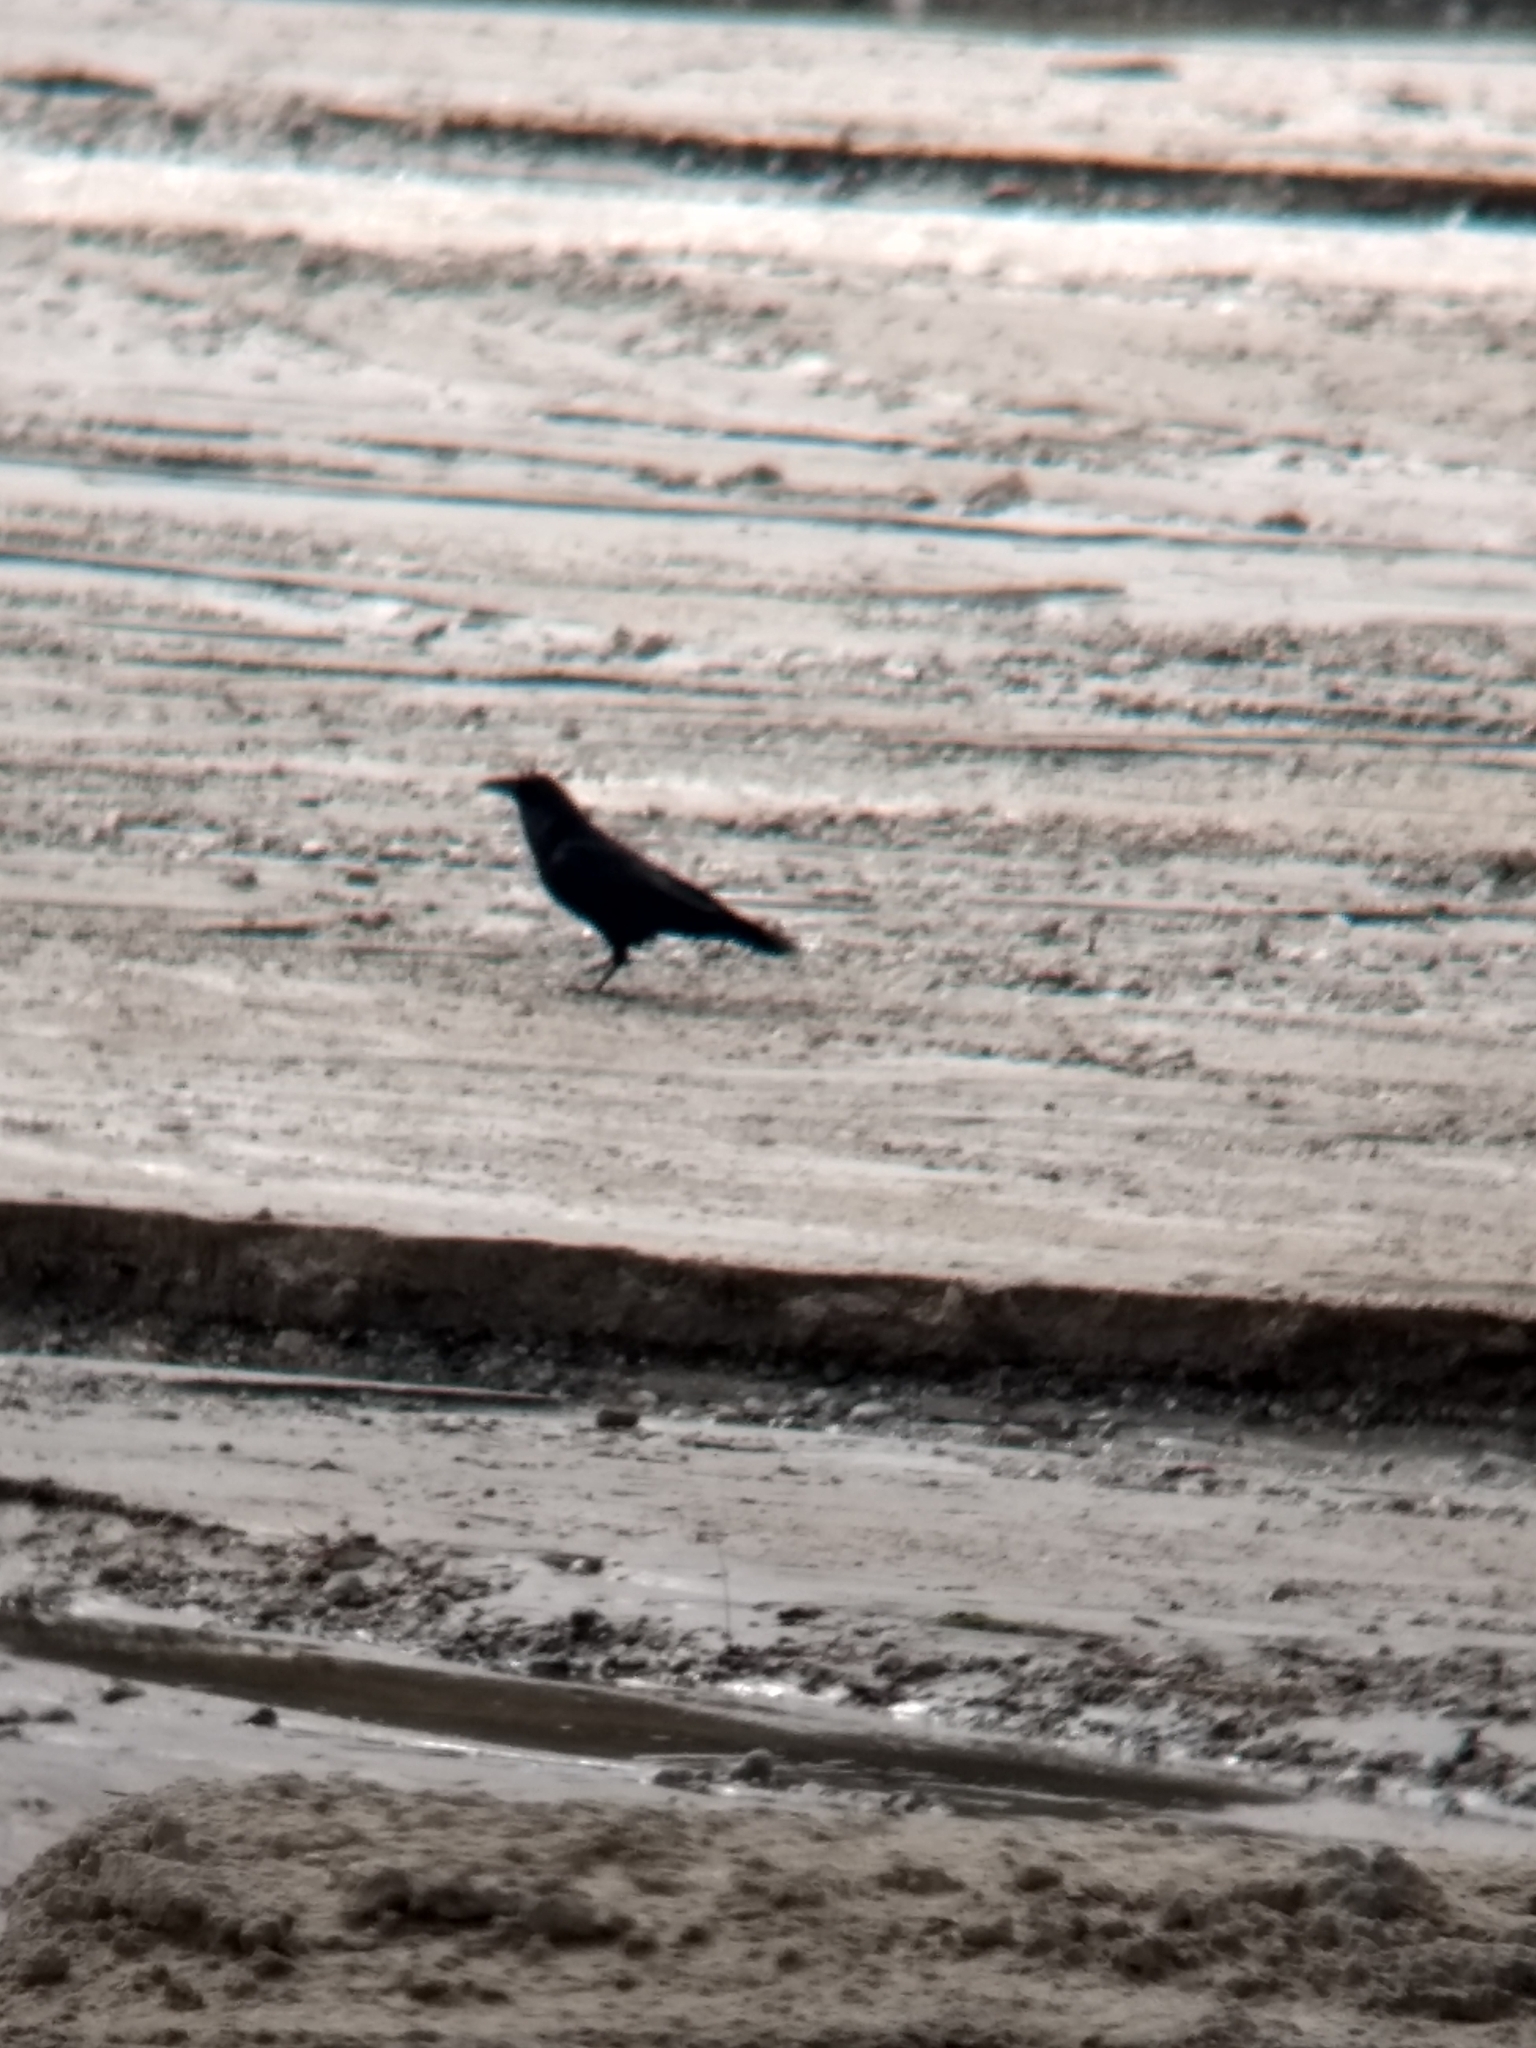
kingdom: Animalia
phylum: Chordata
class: Aves
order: Passeriformes
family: Corvidae
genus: Corvus
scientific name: Corvus
